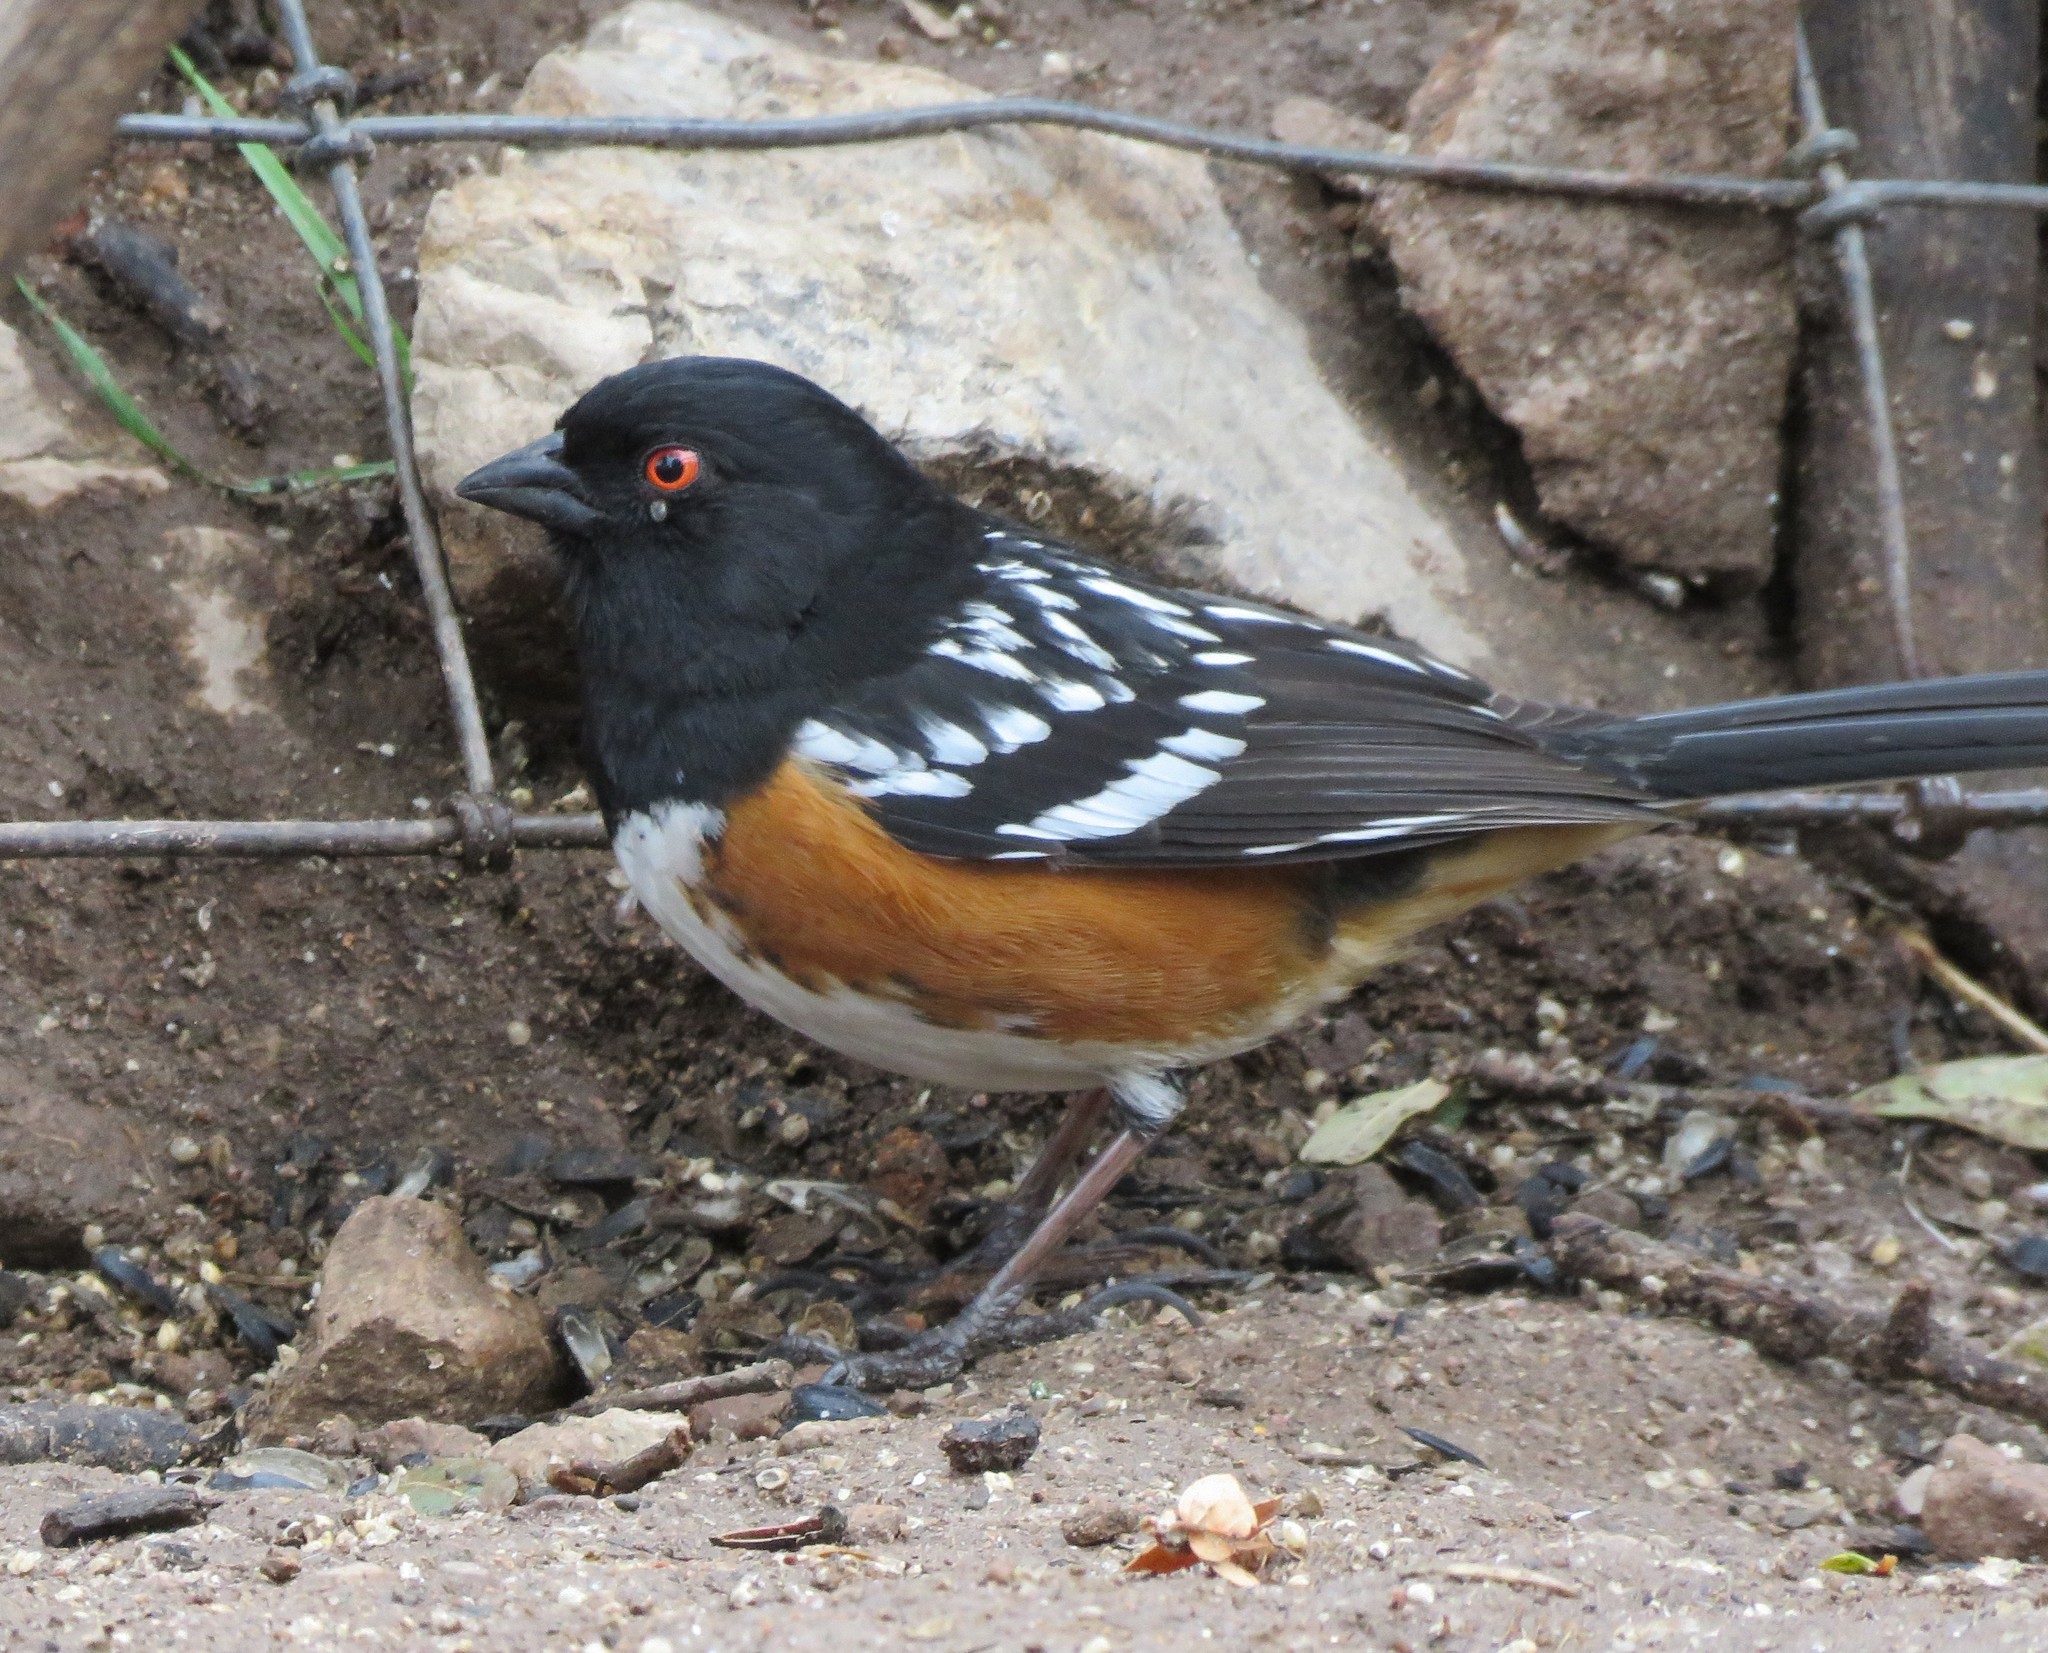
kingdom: Animalia
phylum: Chordata
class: Aves
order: Passeriformes
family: Passerellidae
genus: Pipilo
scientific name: Pipilo maculatus
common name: Spotted towhee
